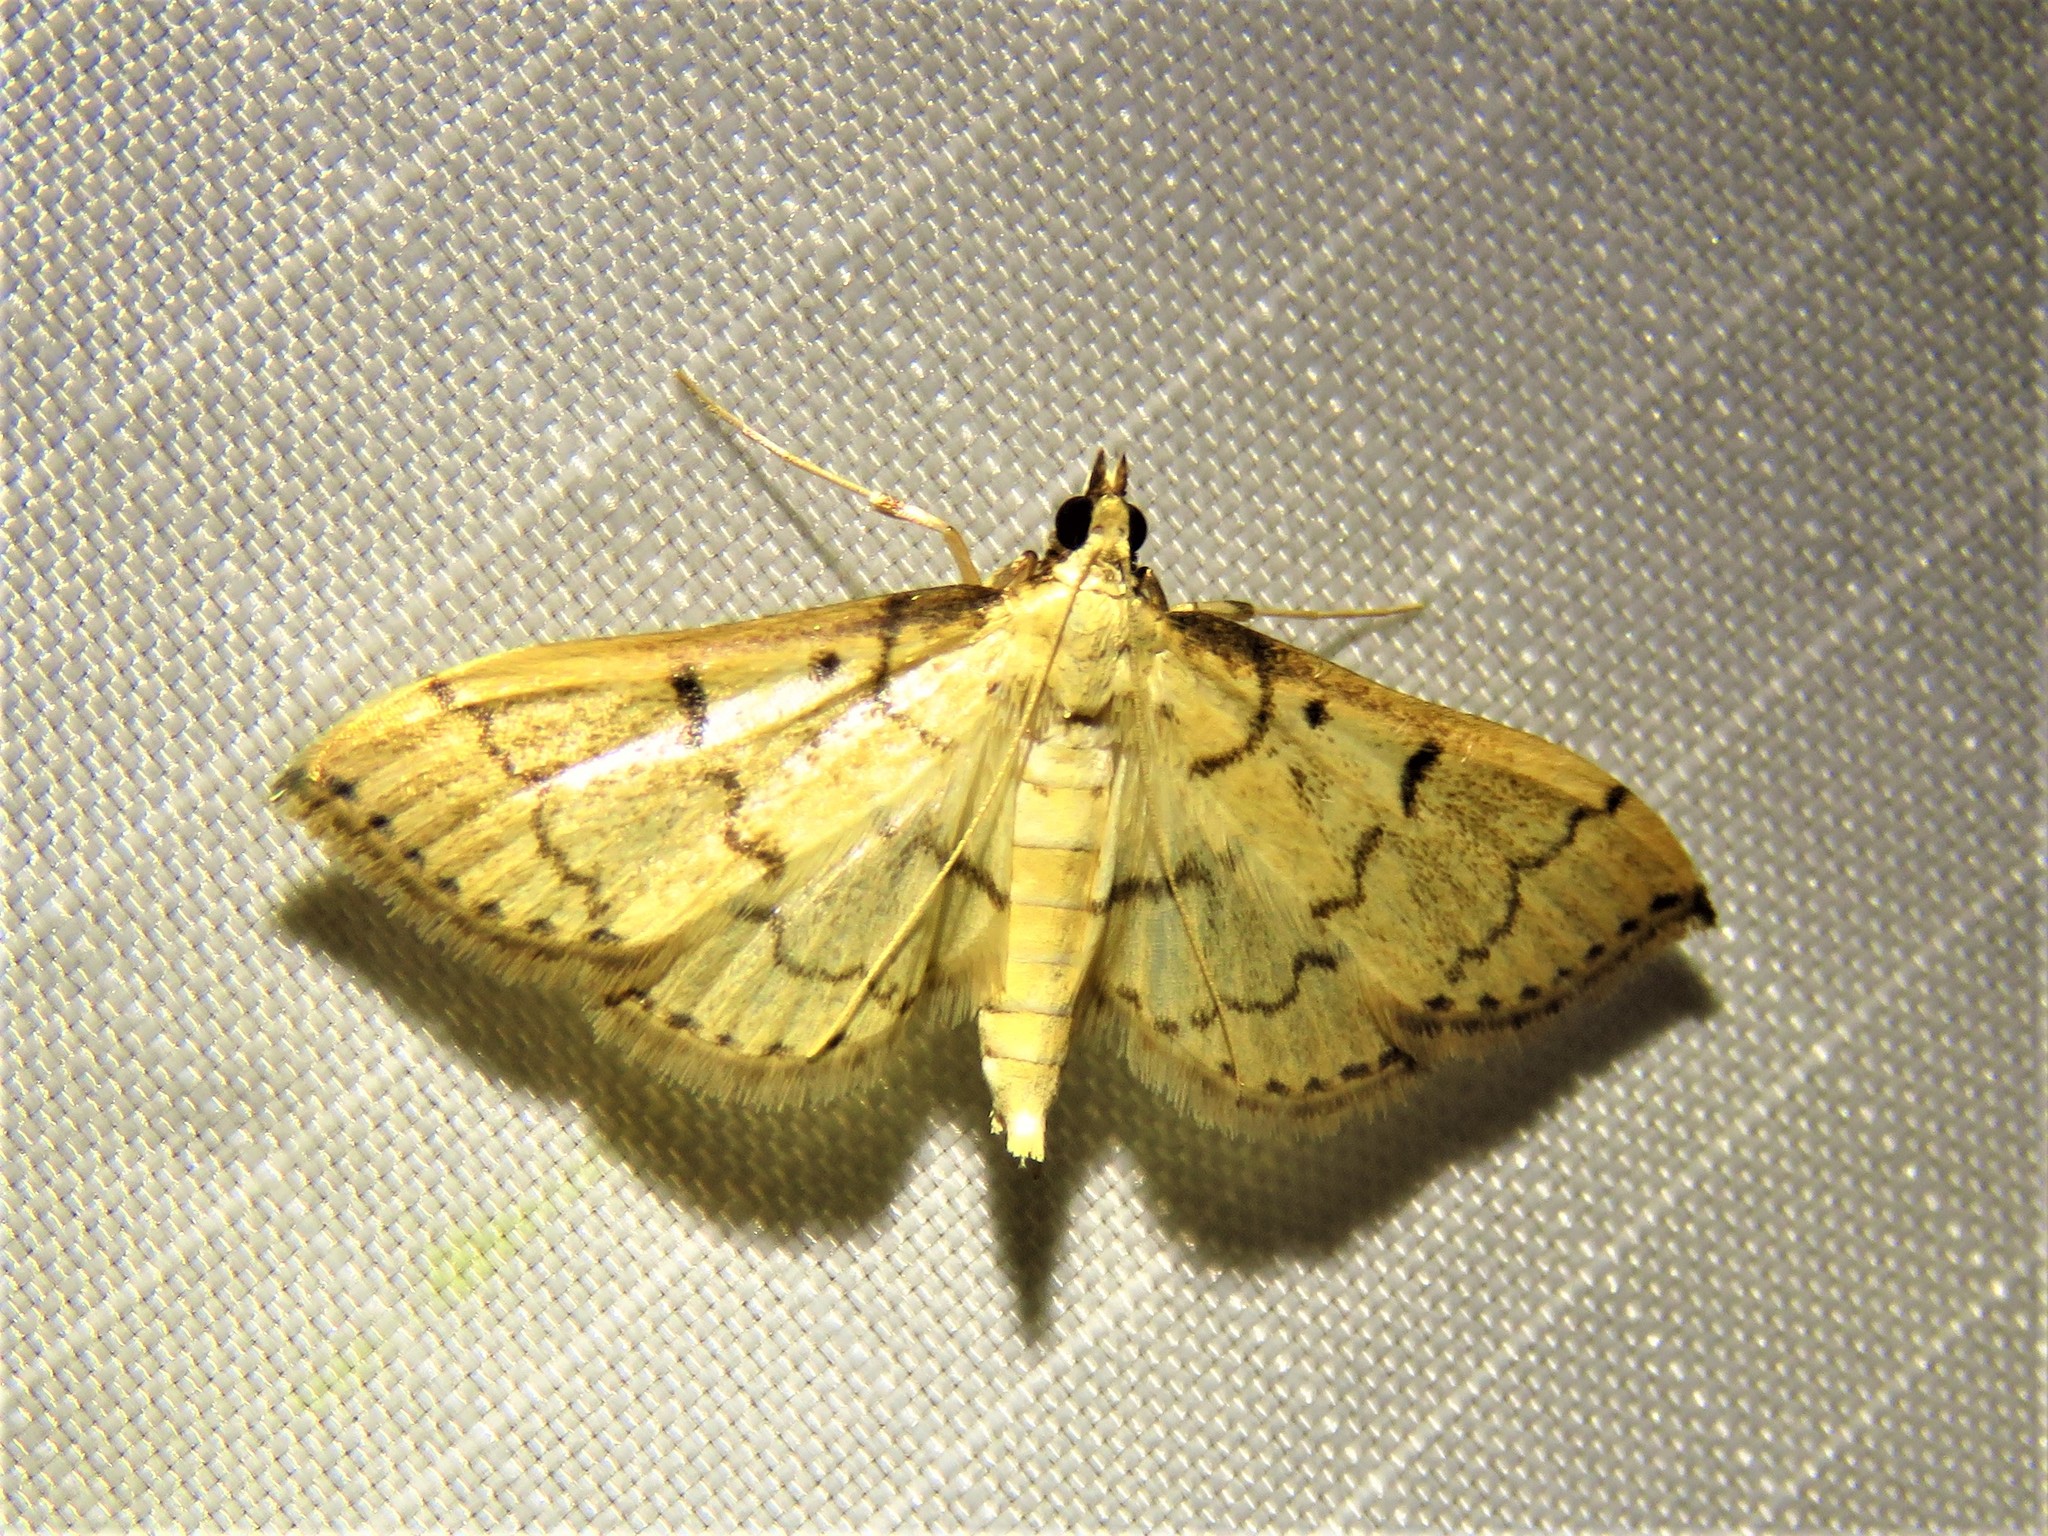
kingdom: Animalia
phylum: Arthropoda
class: Insecta
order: Lepidoptera
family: Crambidae
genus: Herpetogramma
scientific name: Herpetogramma bipunctalis
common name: Southern beet webworm
